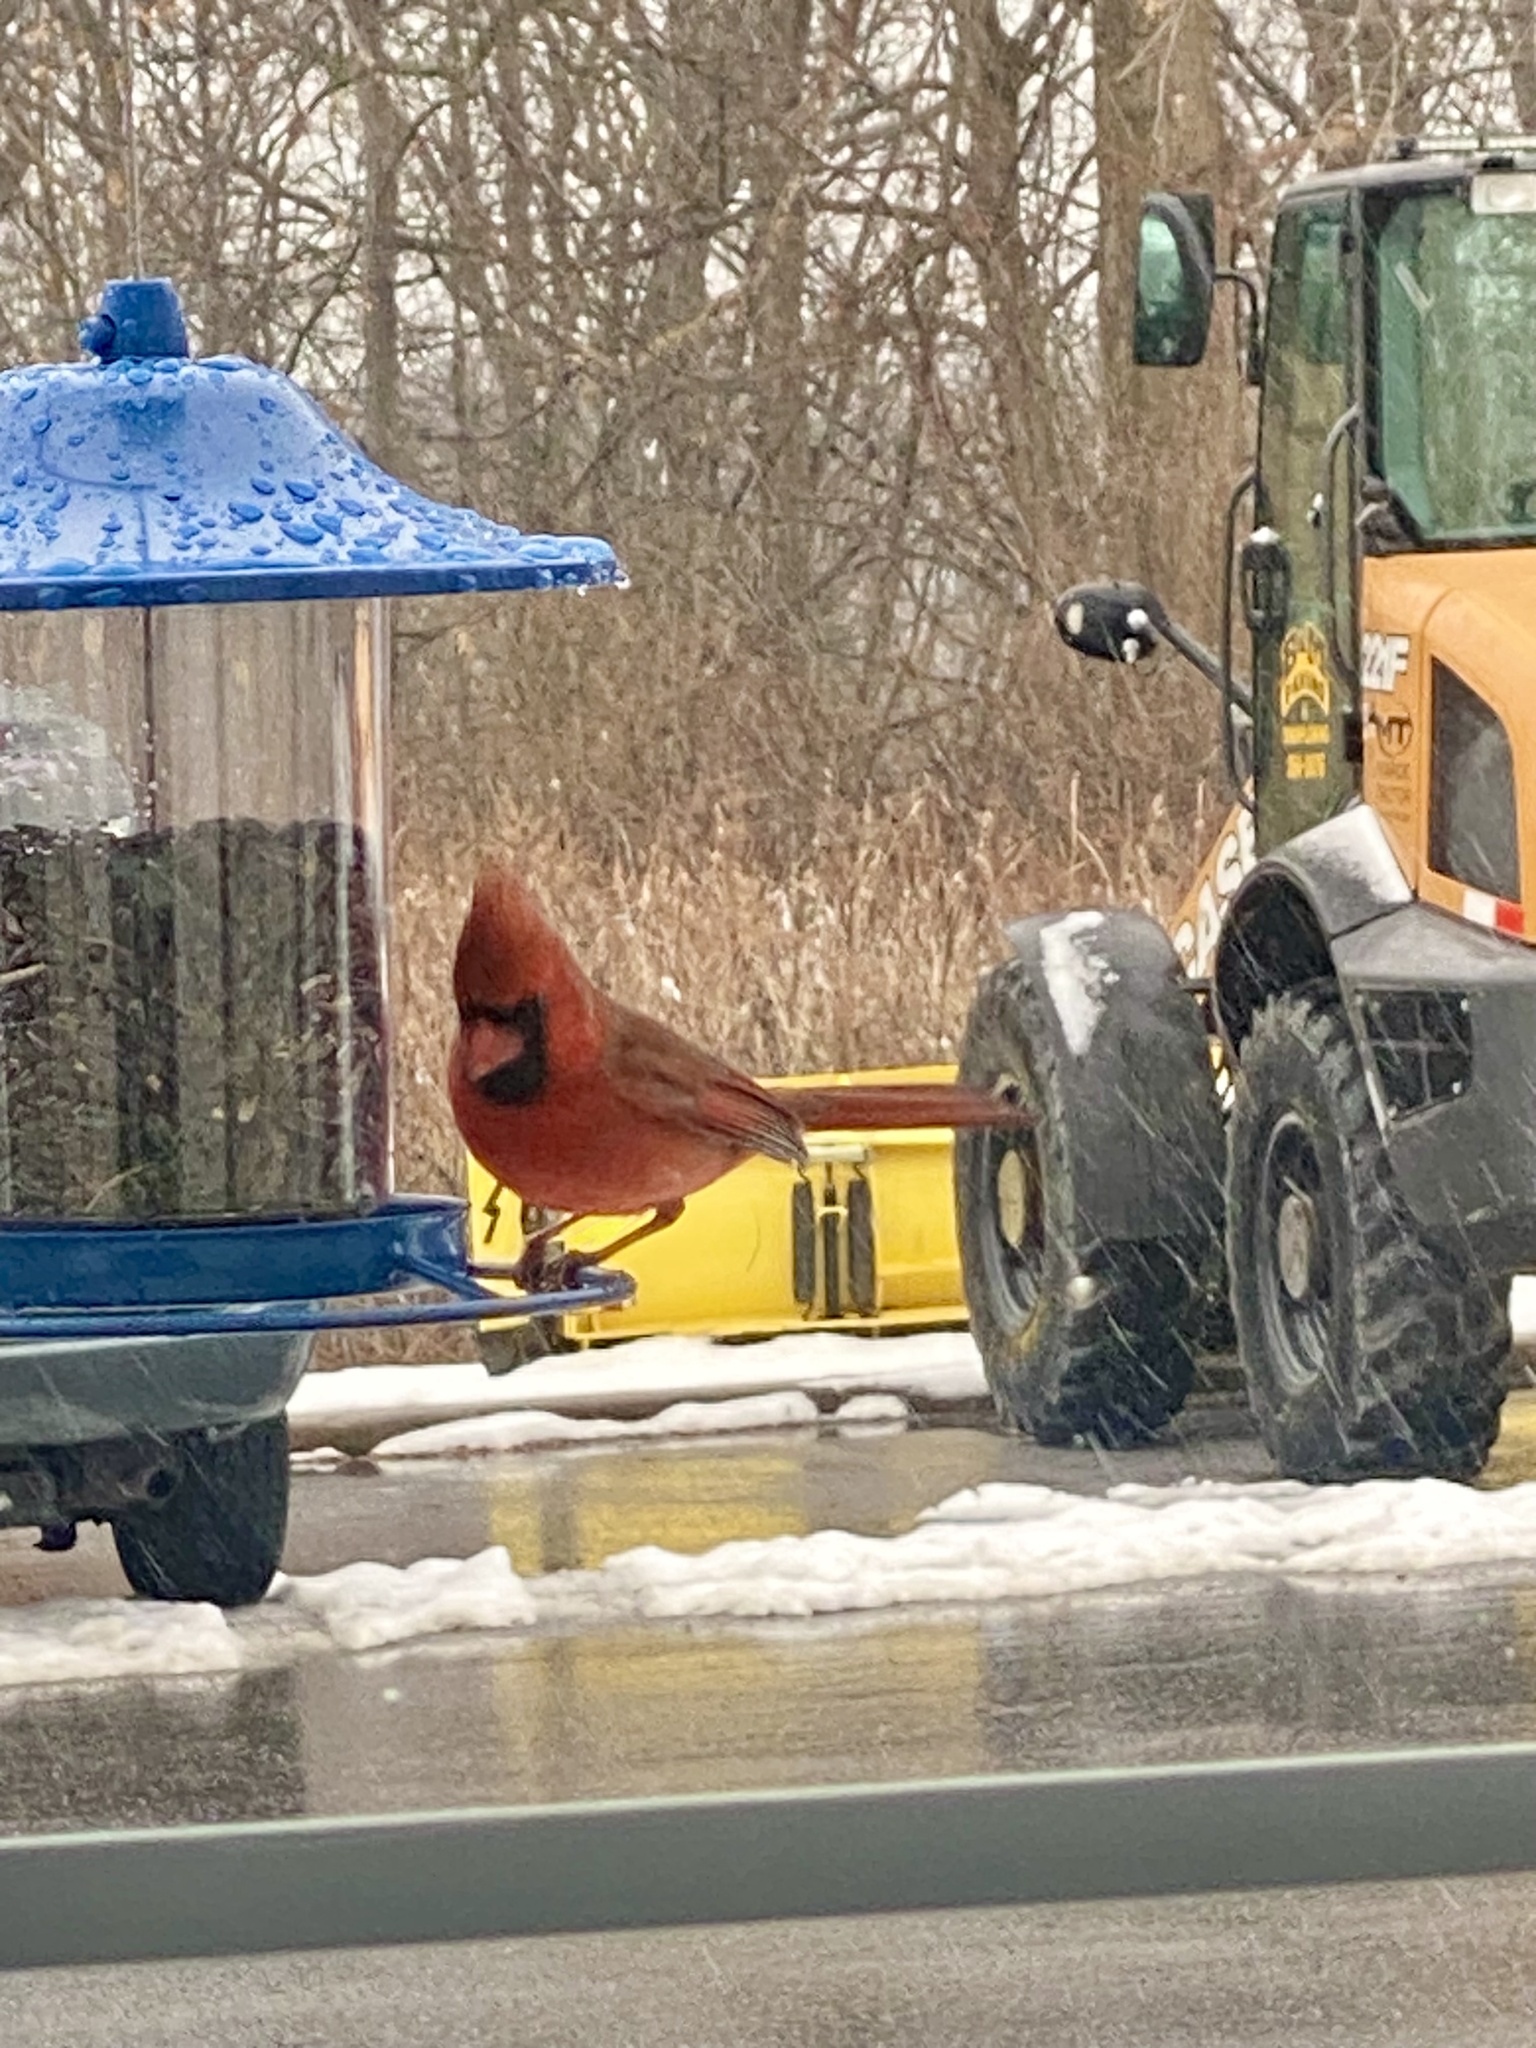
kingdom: Animalia
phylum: Chordata
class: Aves
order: Passeriformes
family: Cardinalidae
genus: Cardinalis
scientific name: Cardinalis cardinalis
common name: Northern cardinal
